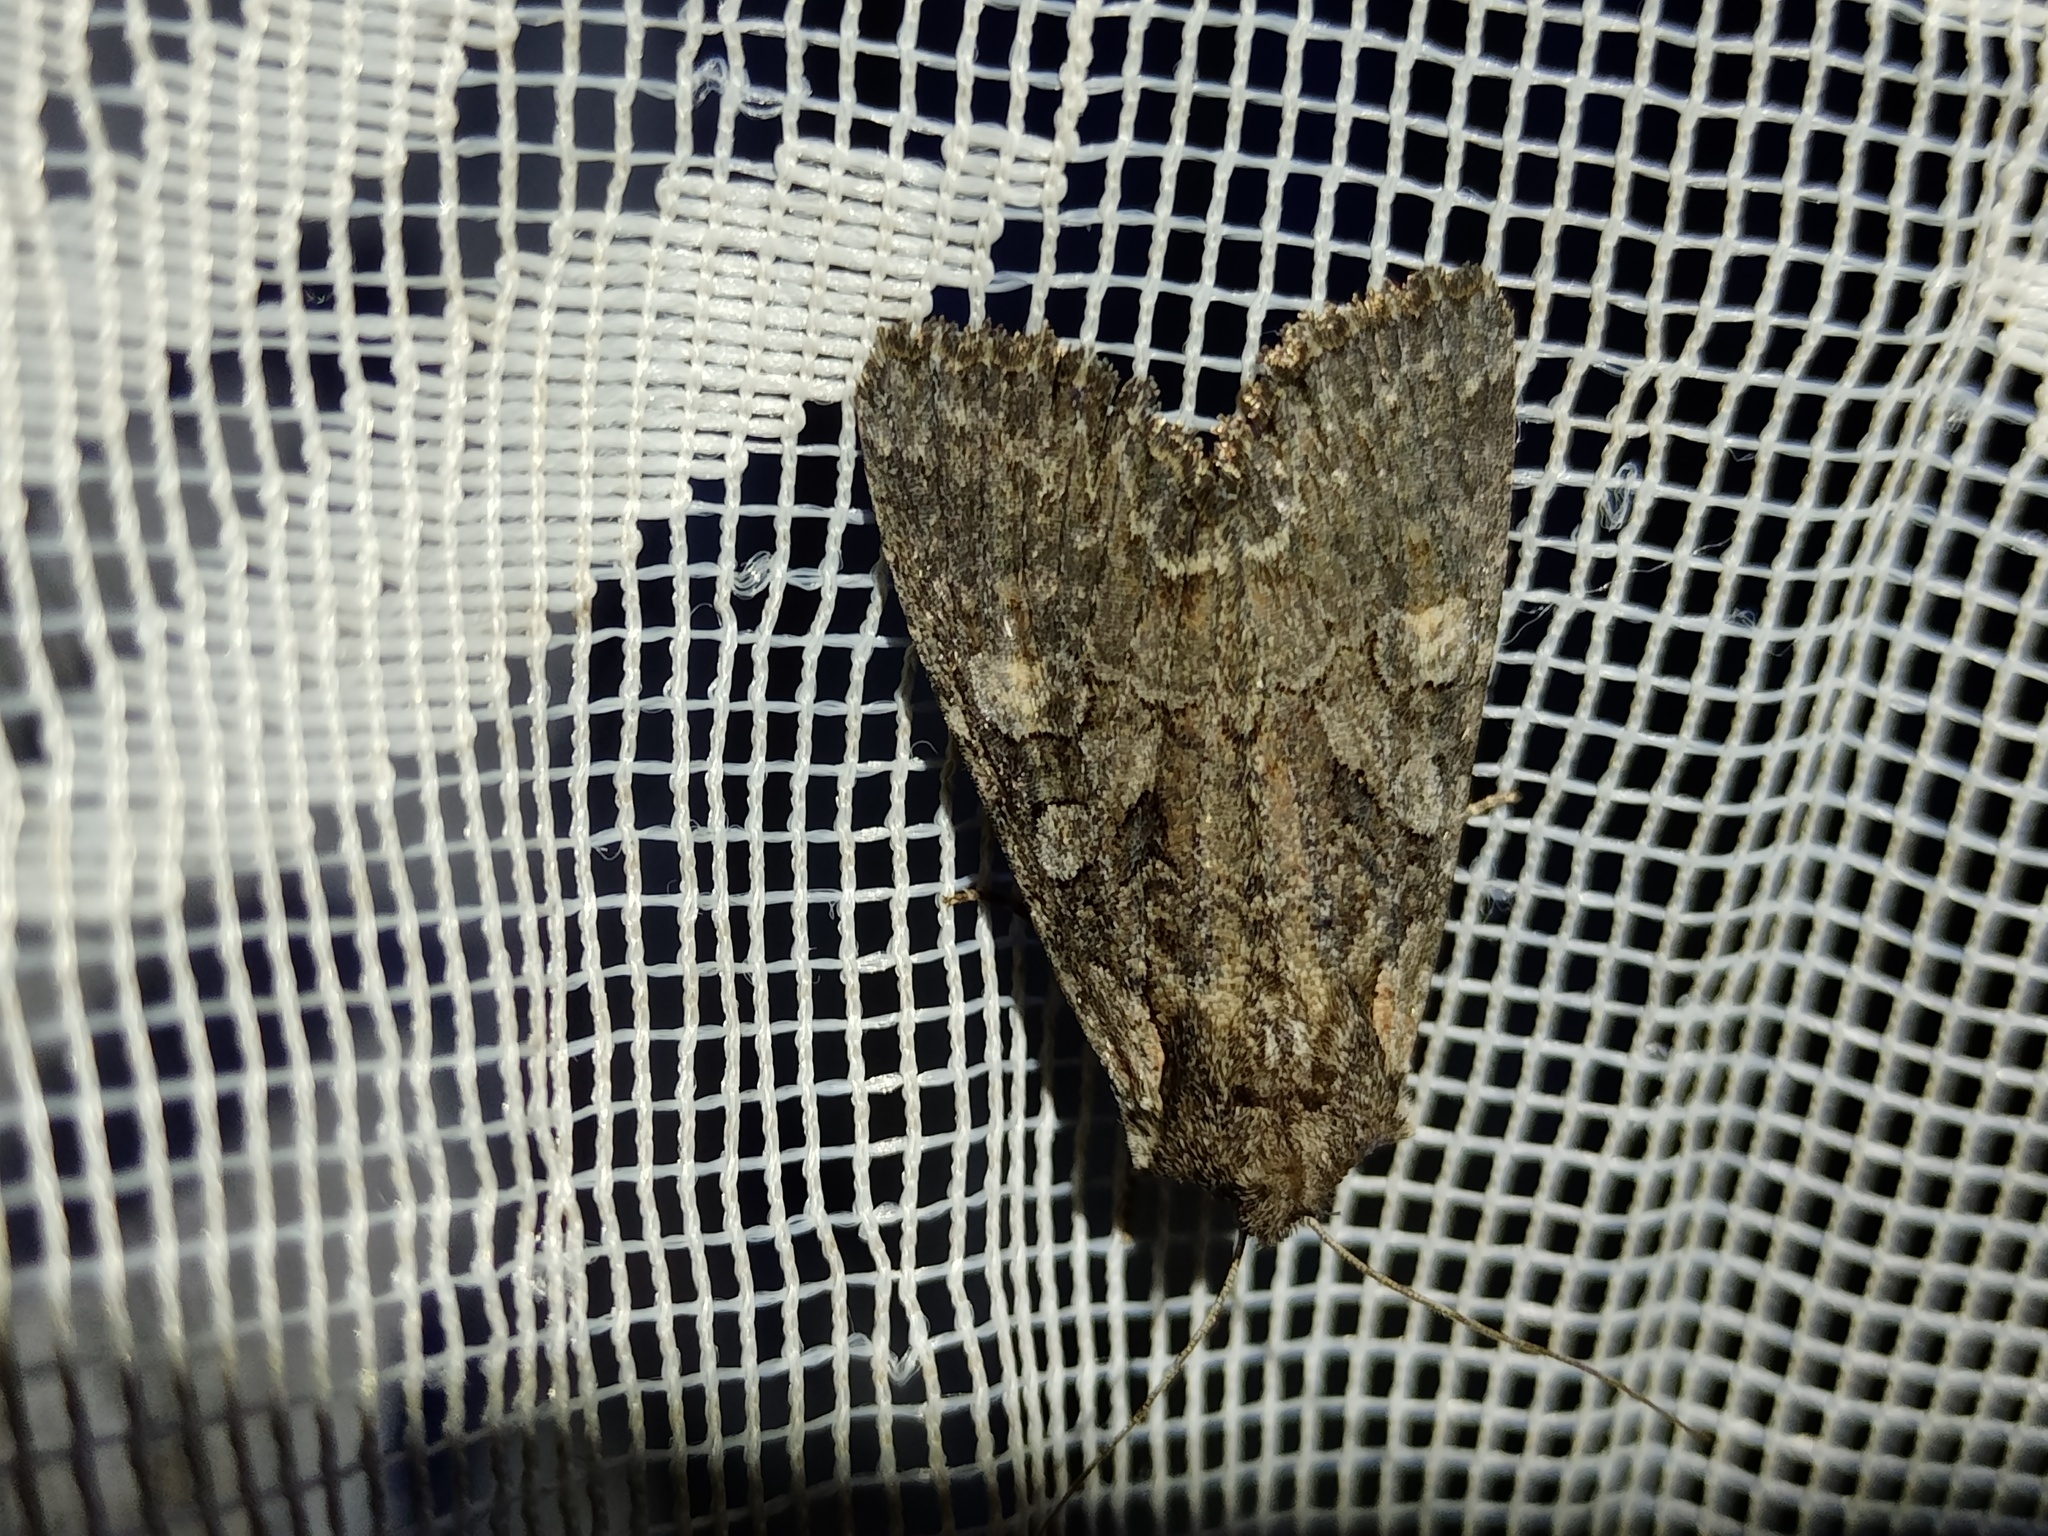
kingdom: Animalia
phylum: Arthropoda
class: Insecta
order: Lepidoptera
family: Noctuidae
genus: Lacanobia
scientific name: Lacanobia aliena
